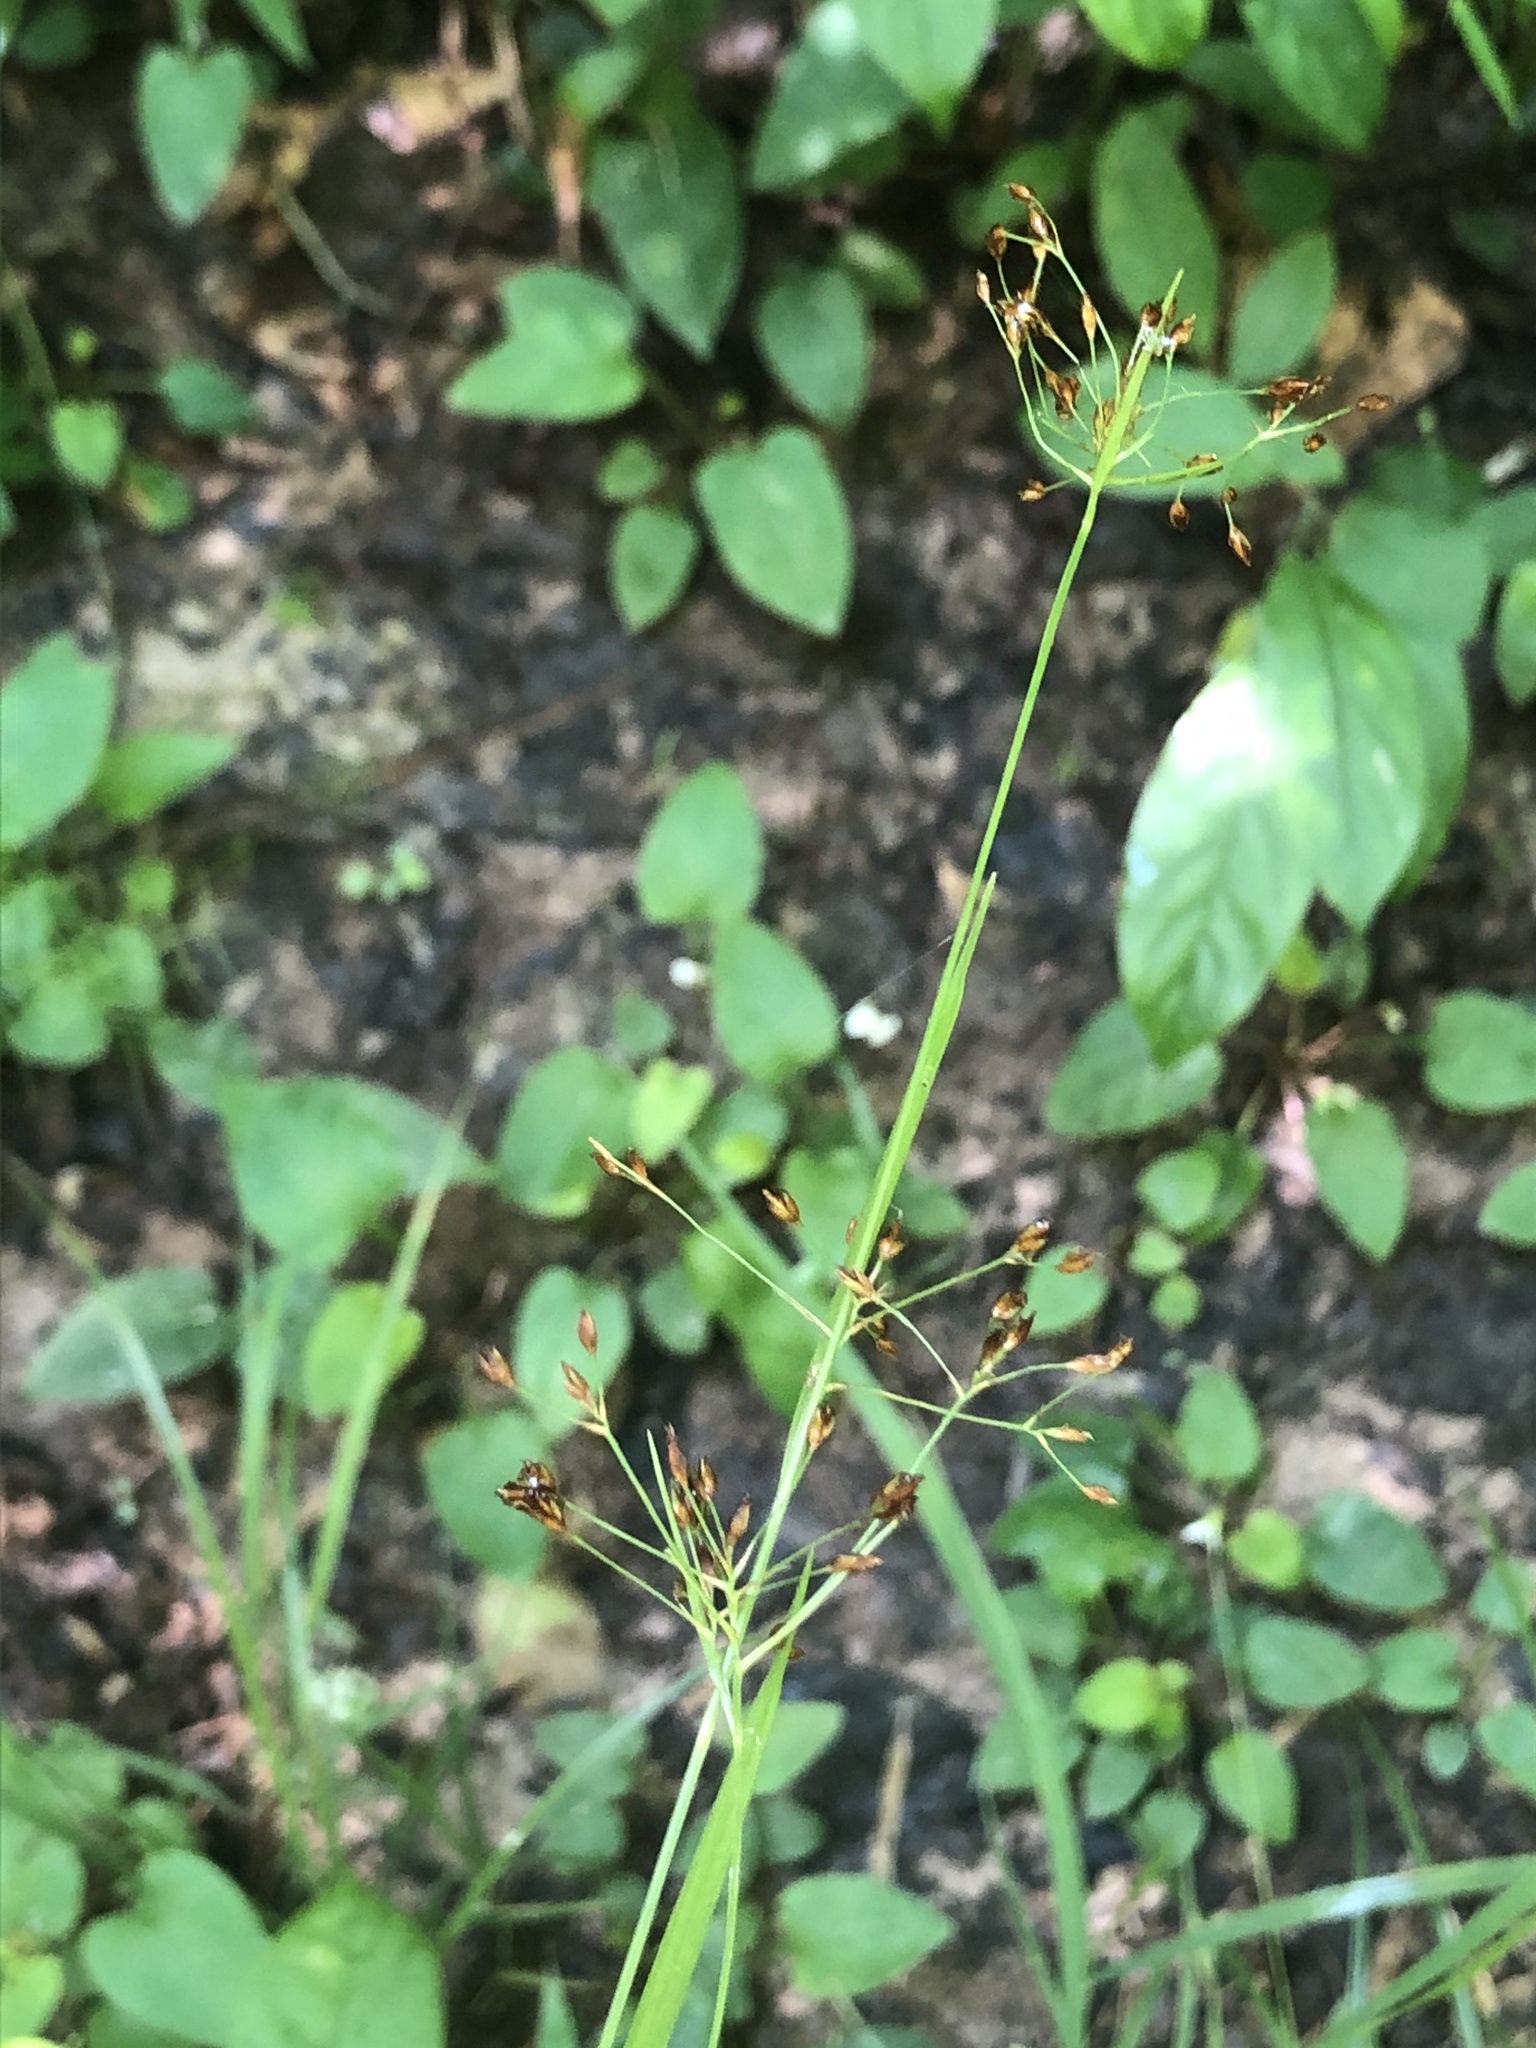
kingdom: Plantae
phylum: Tracheophyta
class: Liliopsida
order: Poales
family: Cyperaceae
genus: Rhynchospora
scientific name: Rhynchospora mixta
